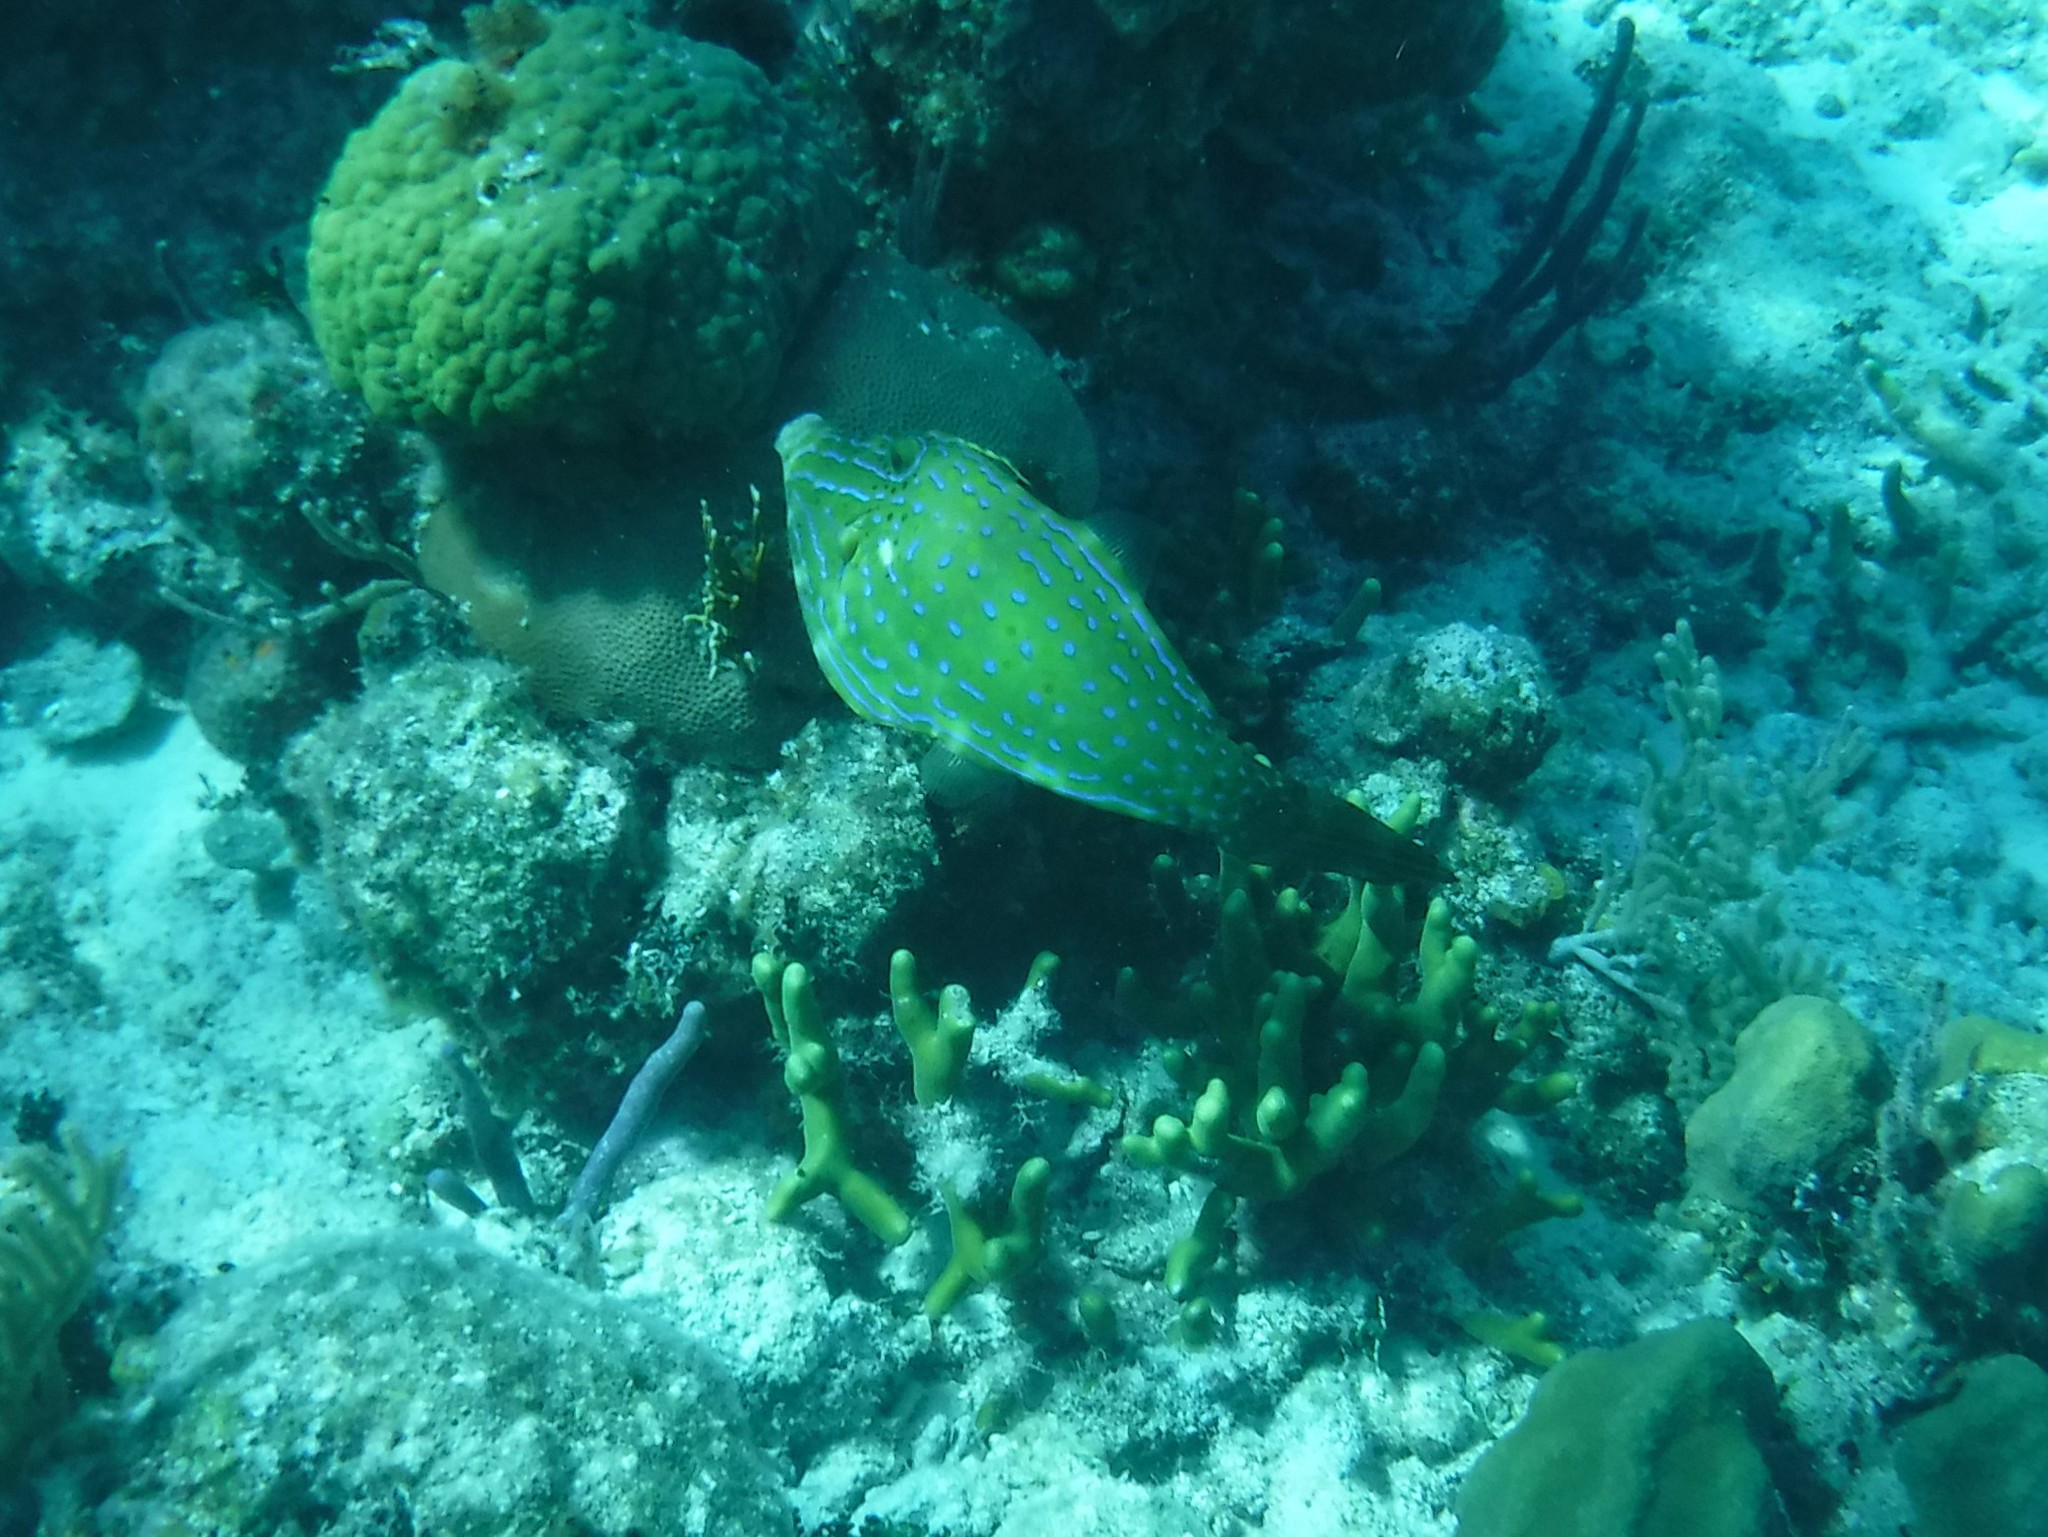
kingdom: Animalia
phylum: Chordata
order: Tetraodontiformes
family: Monacanthidae
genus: Aluterus
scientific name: Aluterus scriptus
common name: Scribbled leatherjacket filefish
